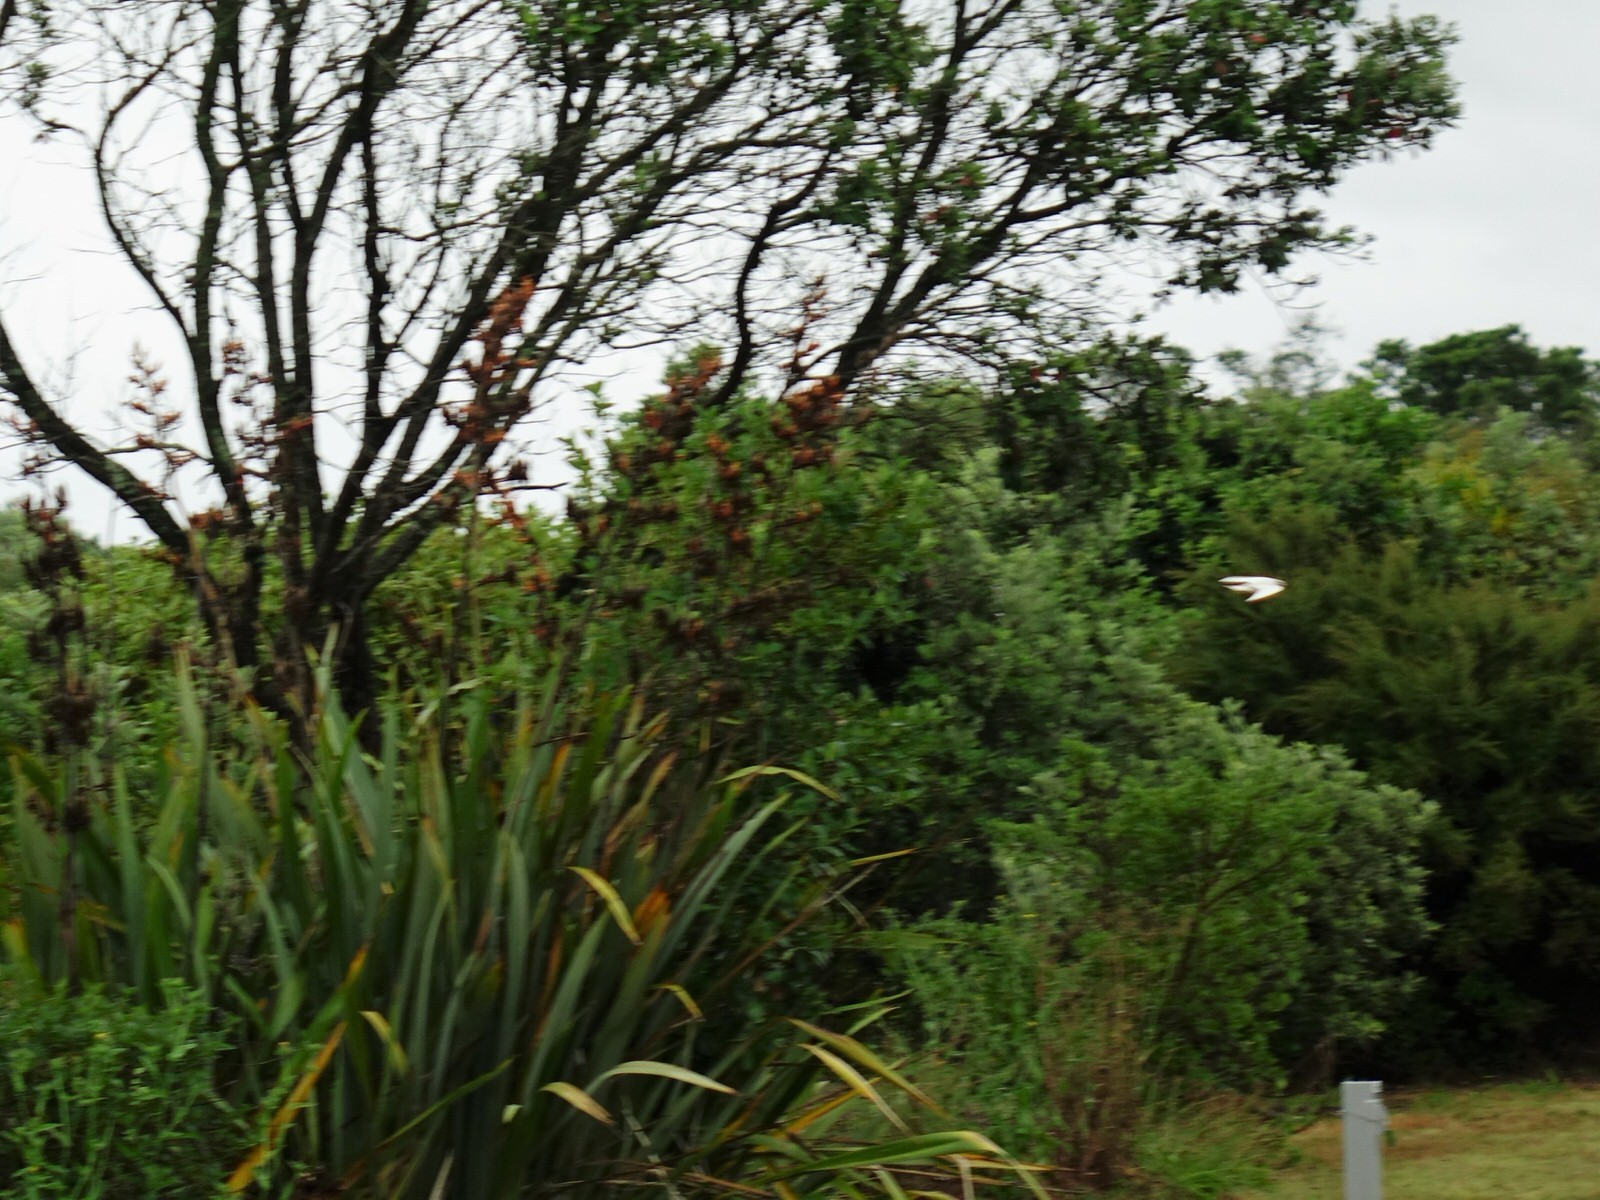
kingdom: Animalia
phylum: Chordata
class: Aves
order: Passeriformes
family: Hirundinidae
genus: Hirundo
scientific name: Hirundo neoxena
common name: Welcome swallow
